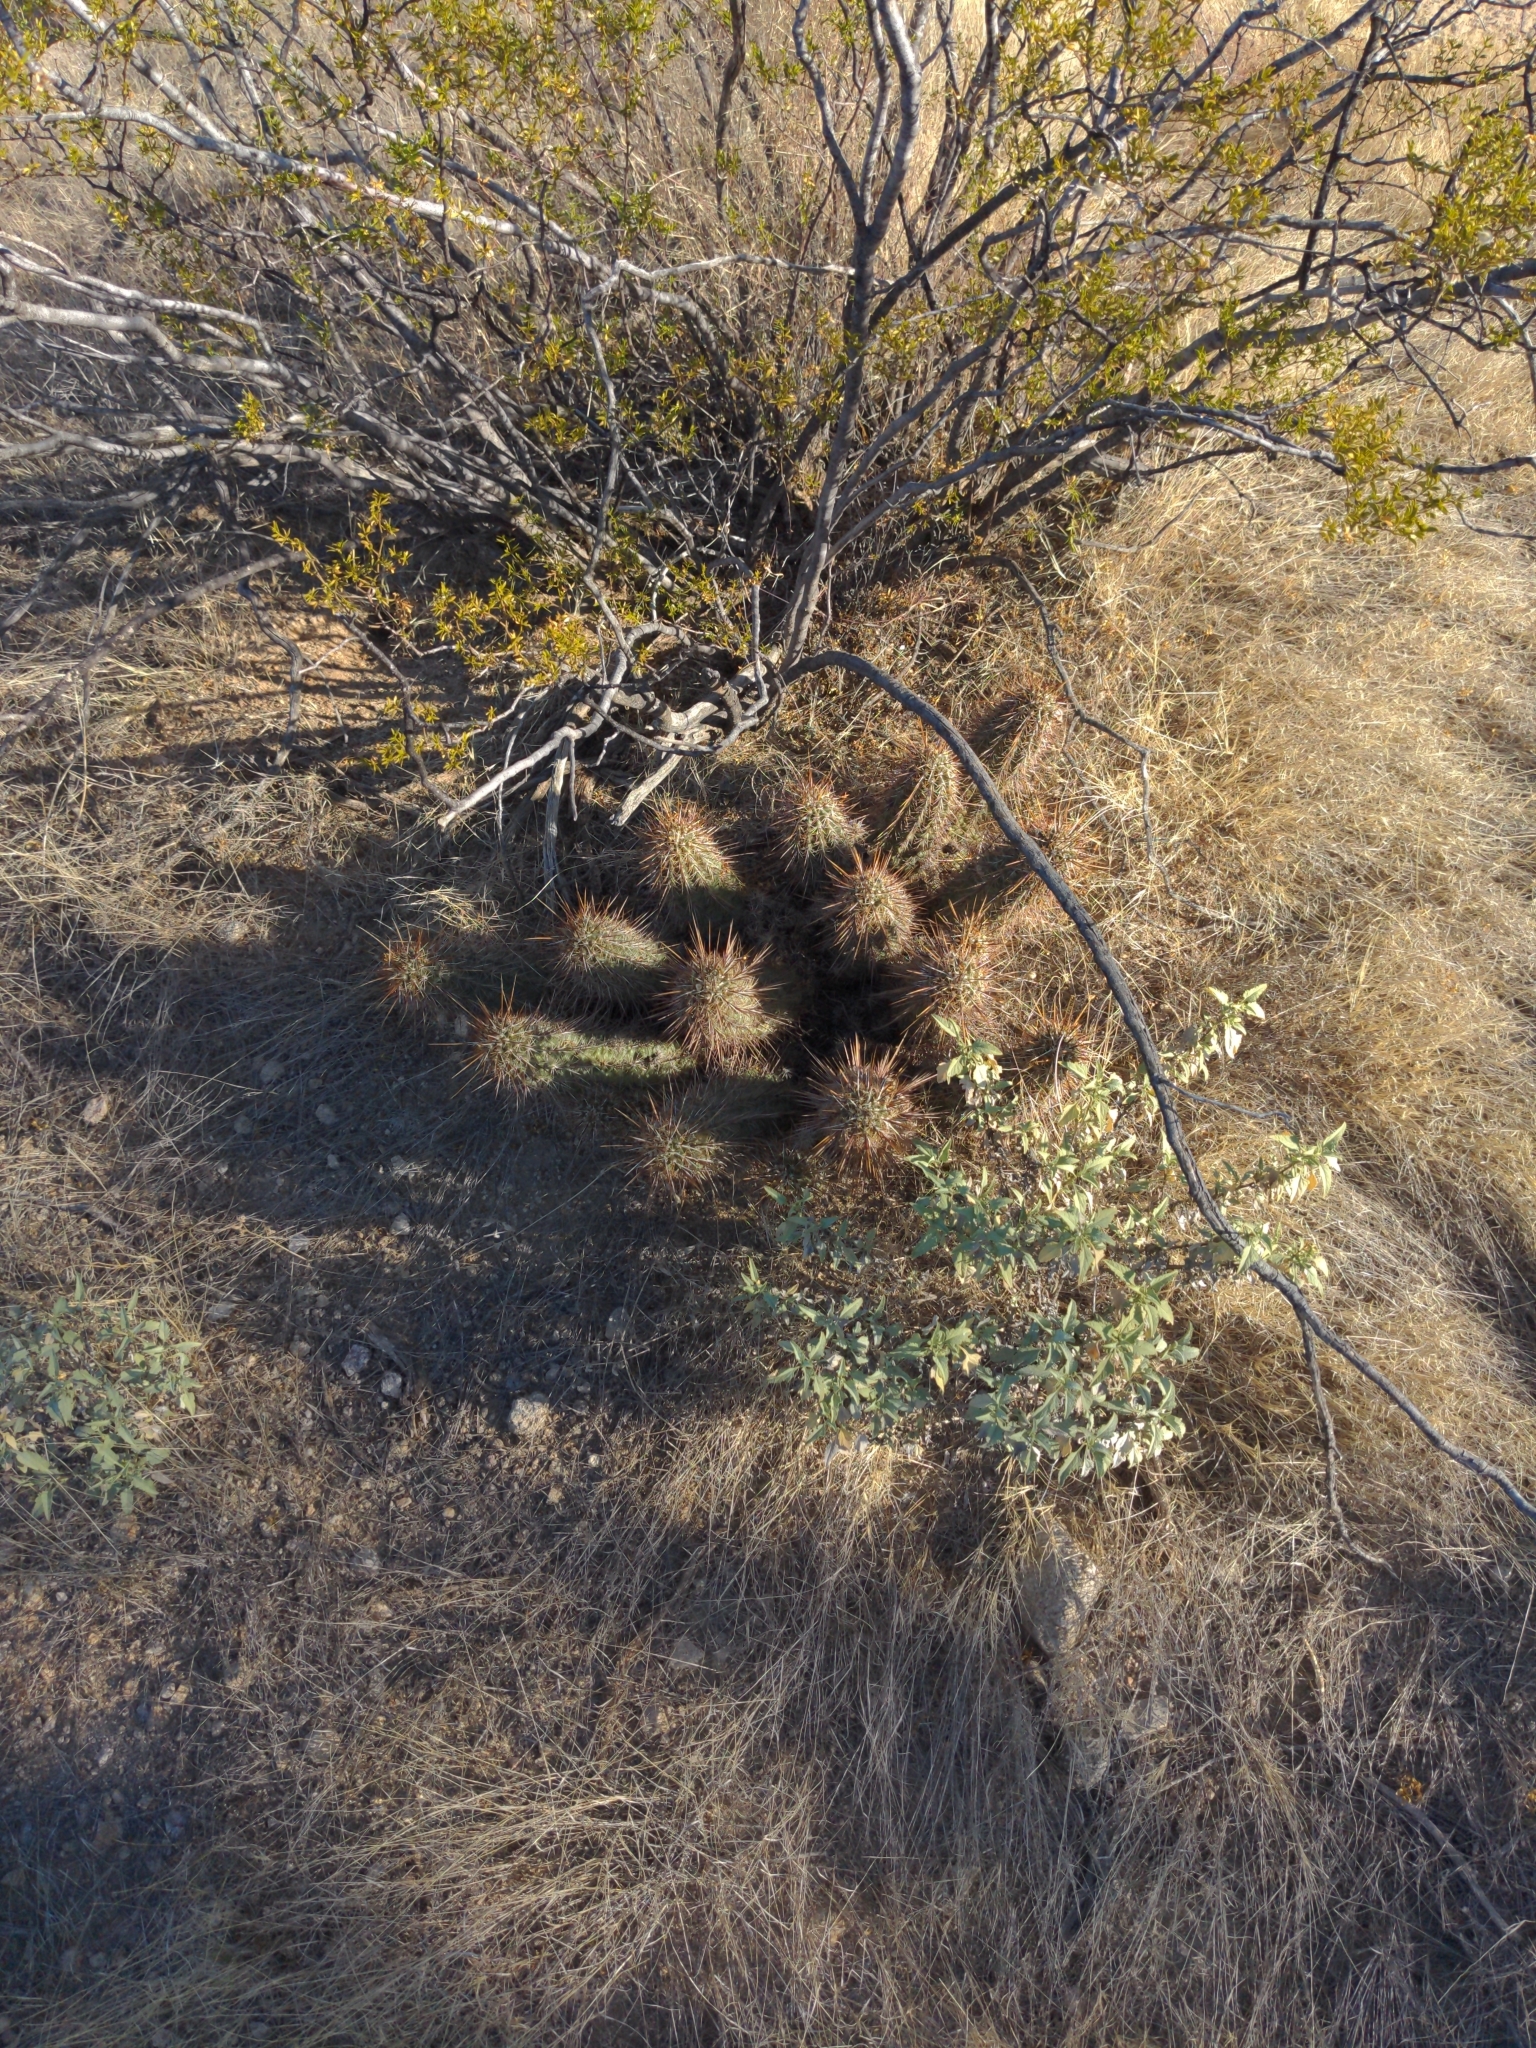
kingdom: Plantae
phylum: Tracheophyta
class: Magnoliopsida
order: Caryophyllales
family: Cactaceae
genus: Echinocereus
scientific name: Echinocereus engelmannii
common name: Engelmann's hedgehog cactus
